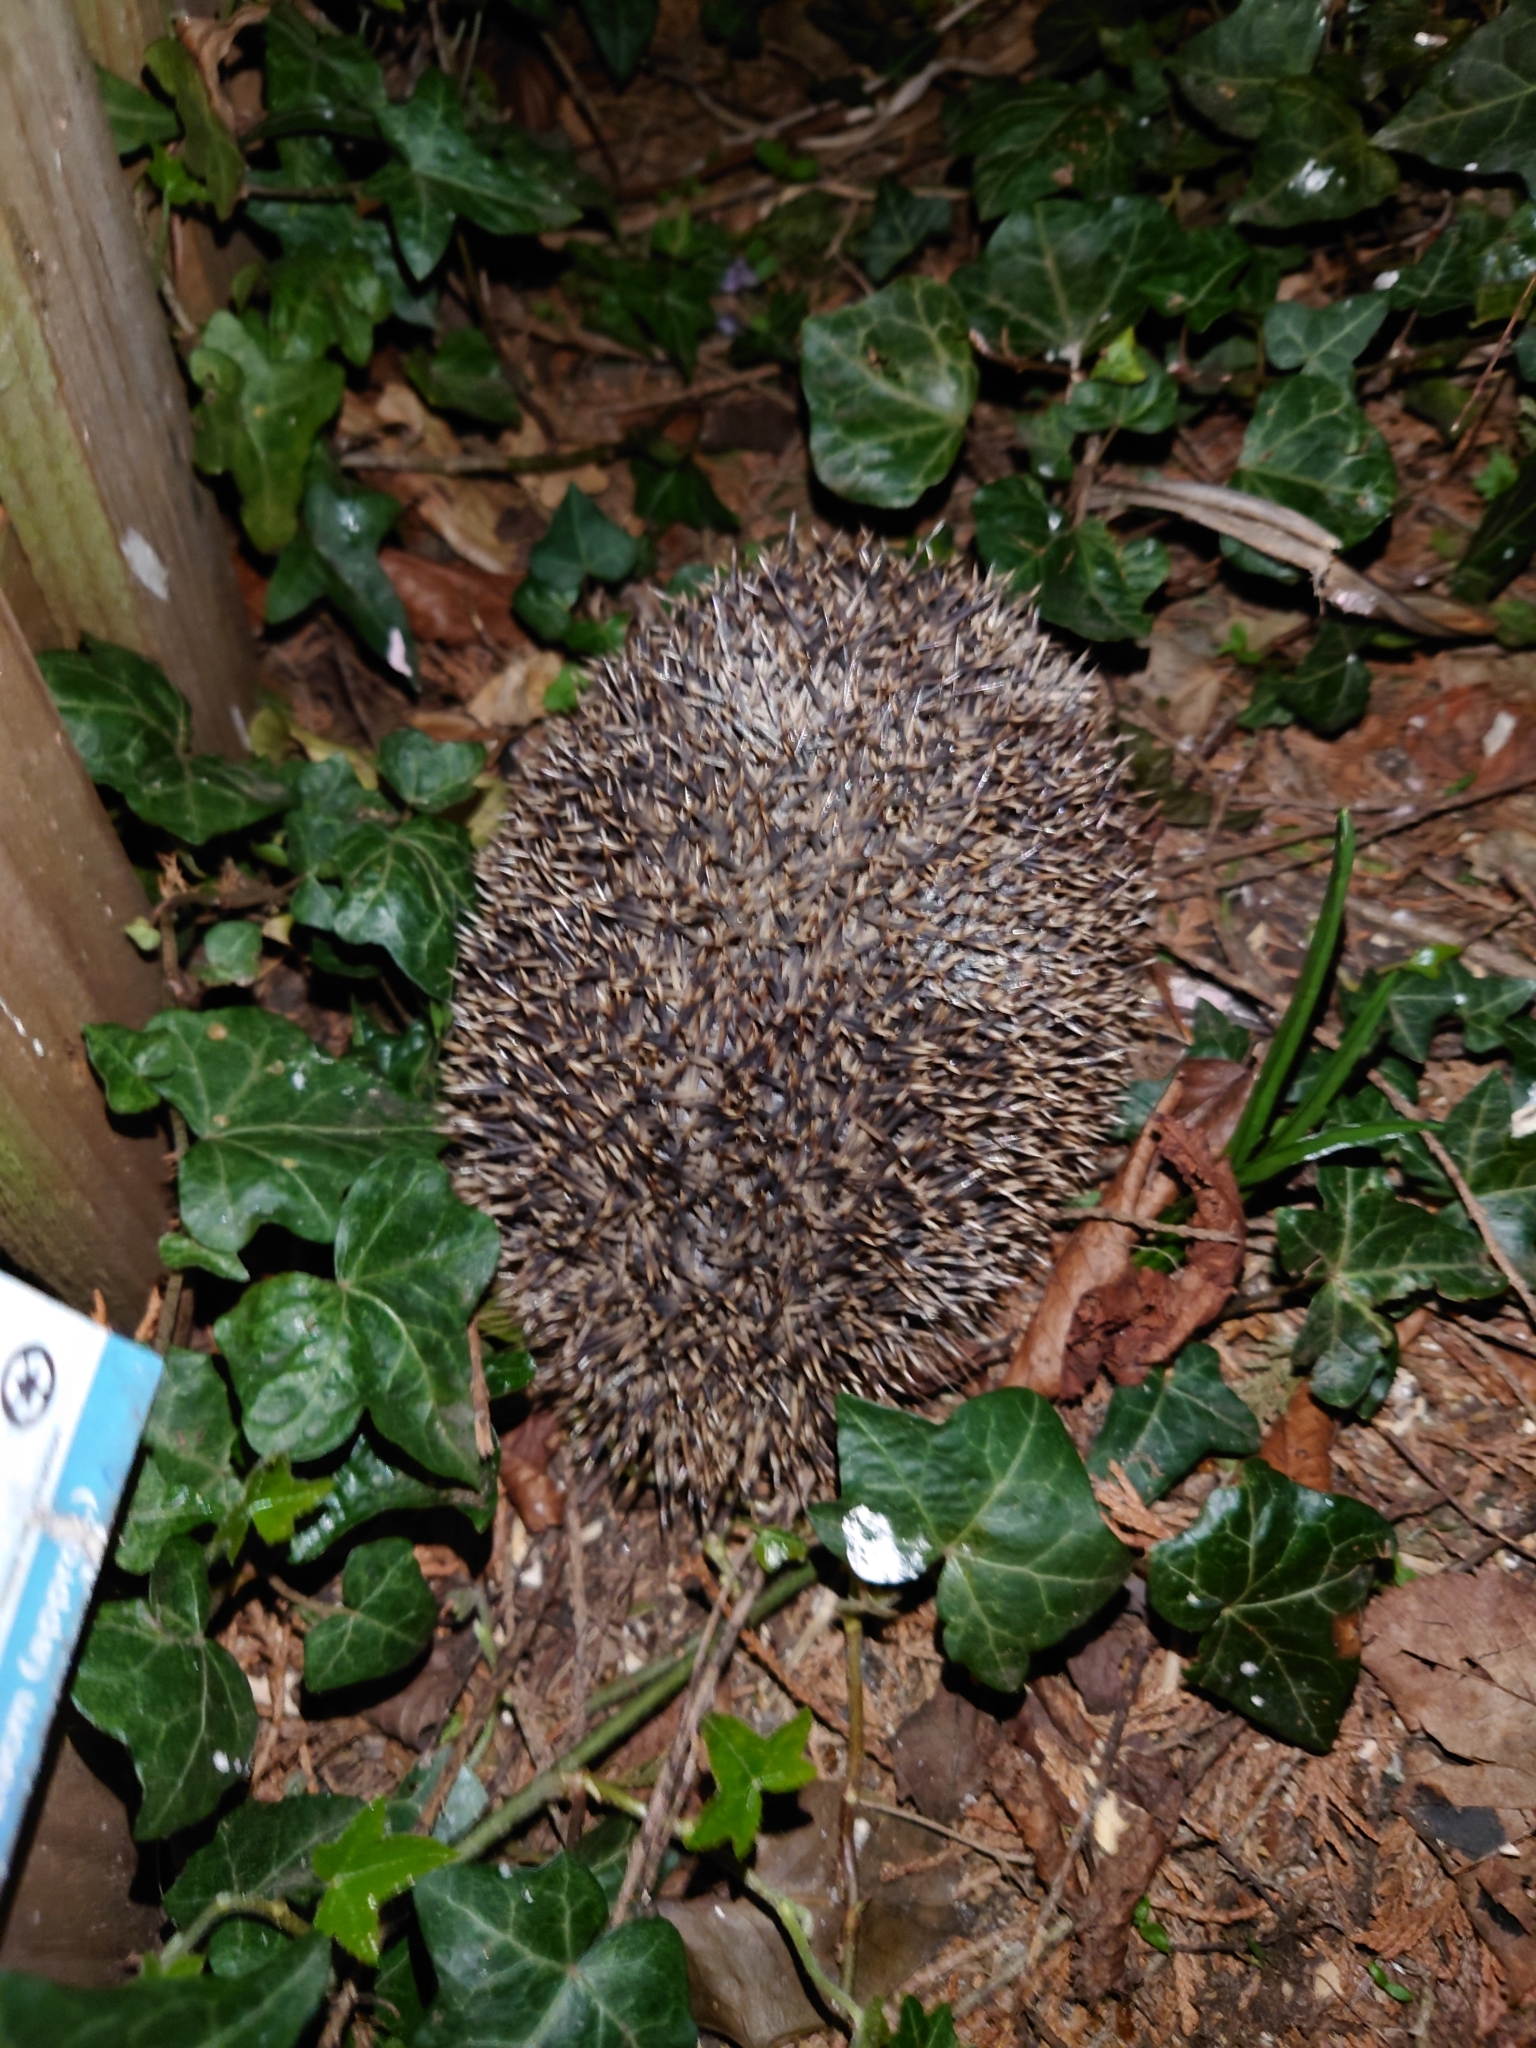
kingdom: Animalia
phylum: Chordata
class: Mammalia
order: Erinaceomorpha
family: Erinaceidae
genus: Erinaceus
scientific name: Erinaceus europaeus
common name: West european hedgehog
